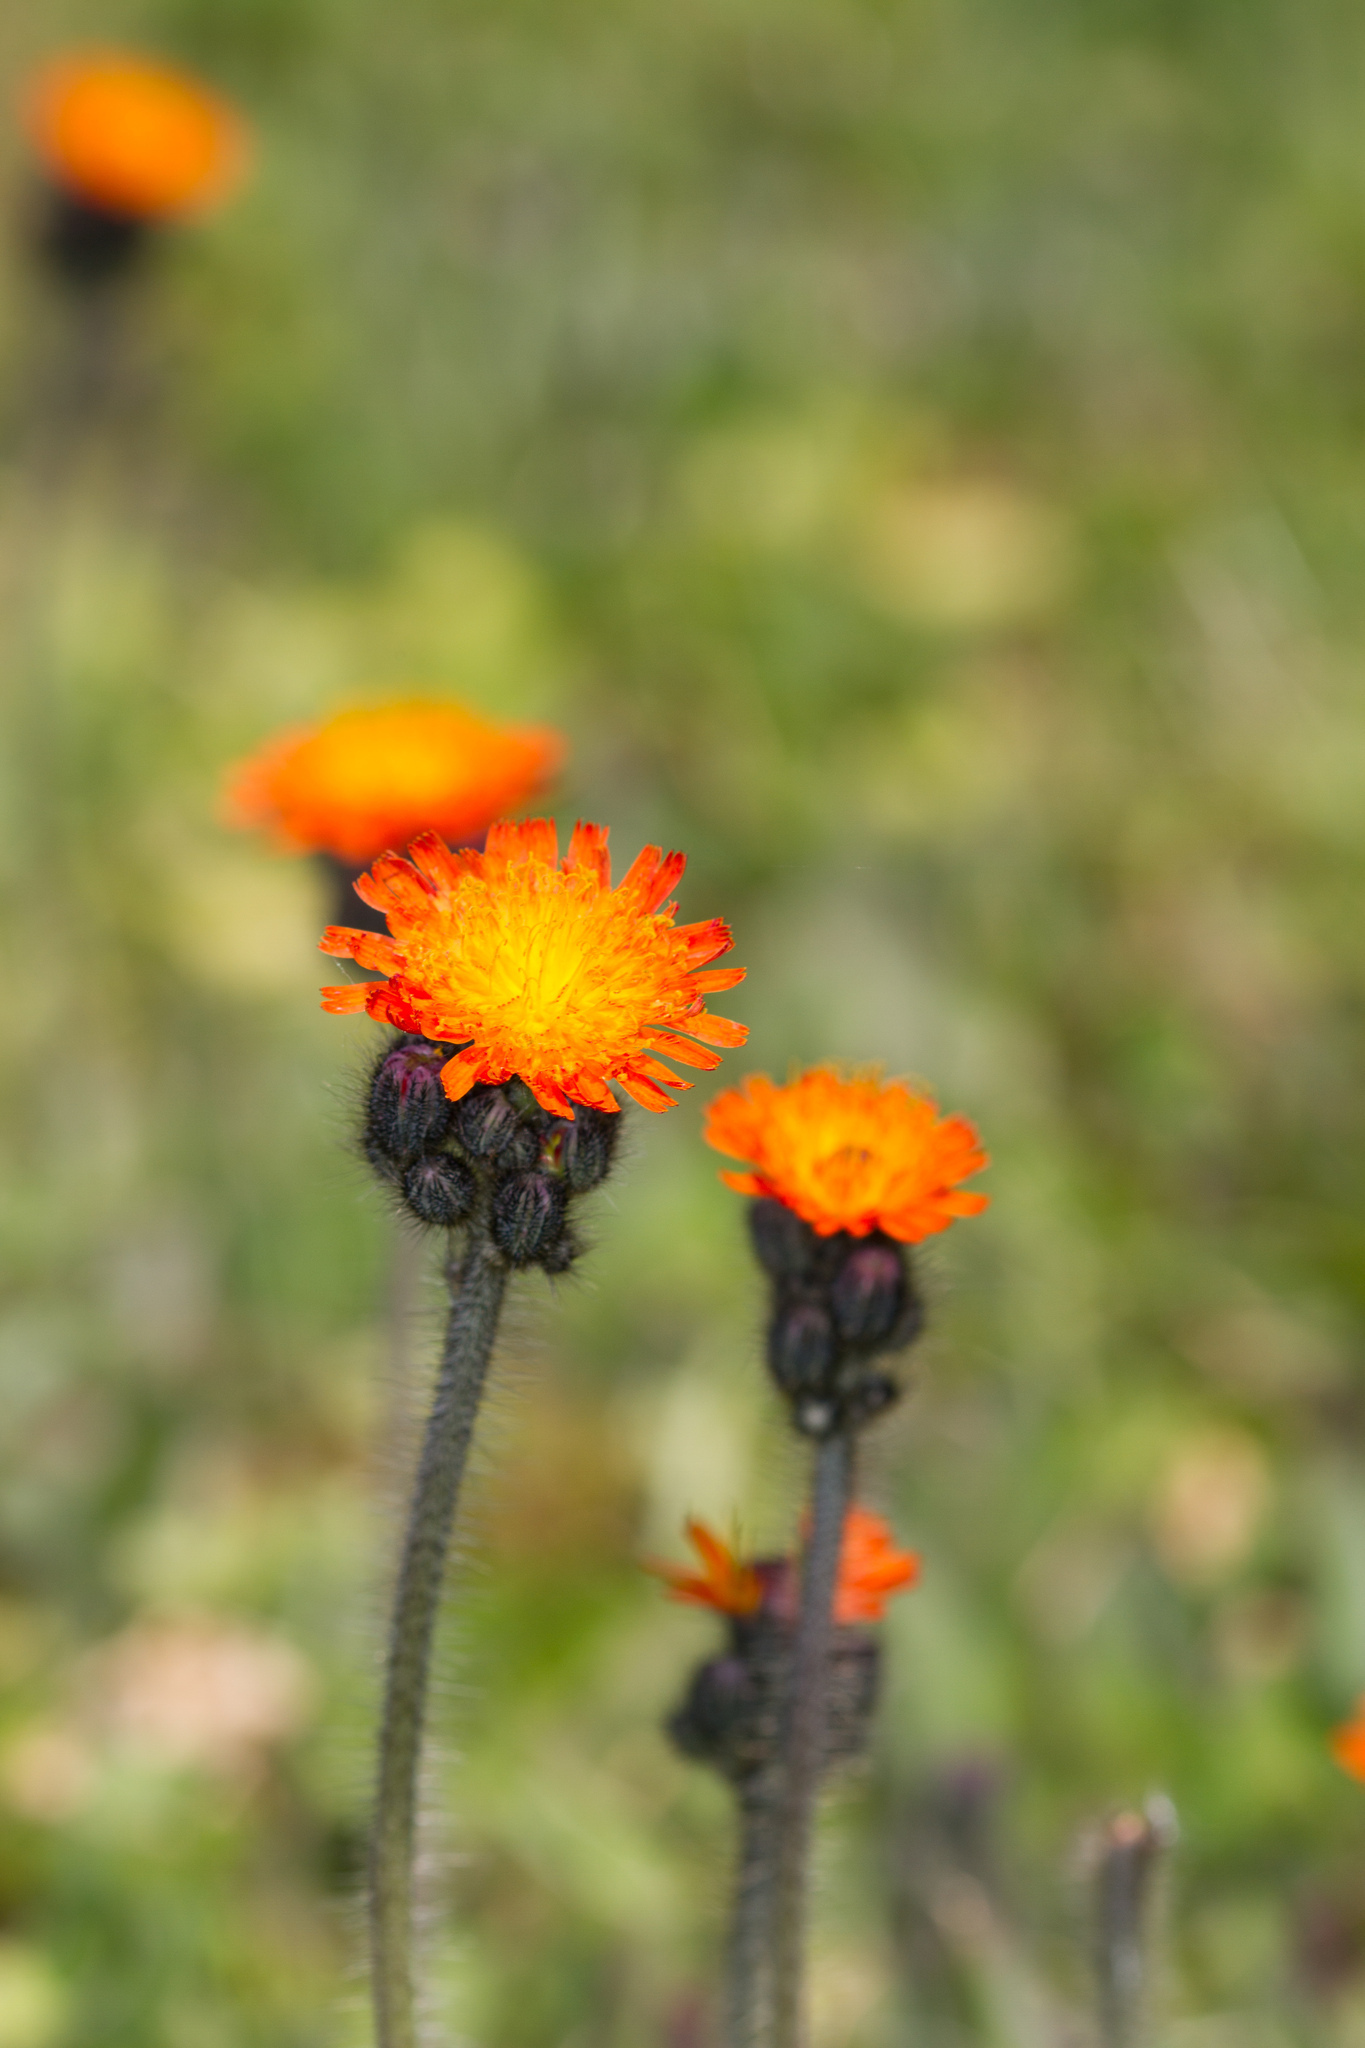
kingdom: Plantae
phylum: Tracheophyta
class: Magnoliopsida
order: Asterales
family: Asteraceae
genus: Pilosella
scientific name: Pilosella aurantiaca
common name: Fox-and-cubs
